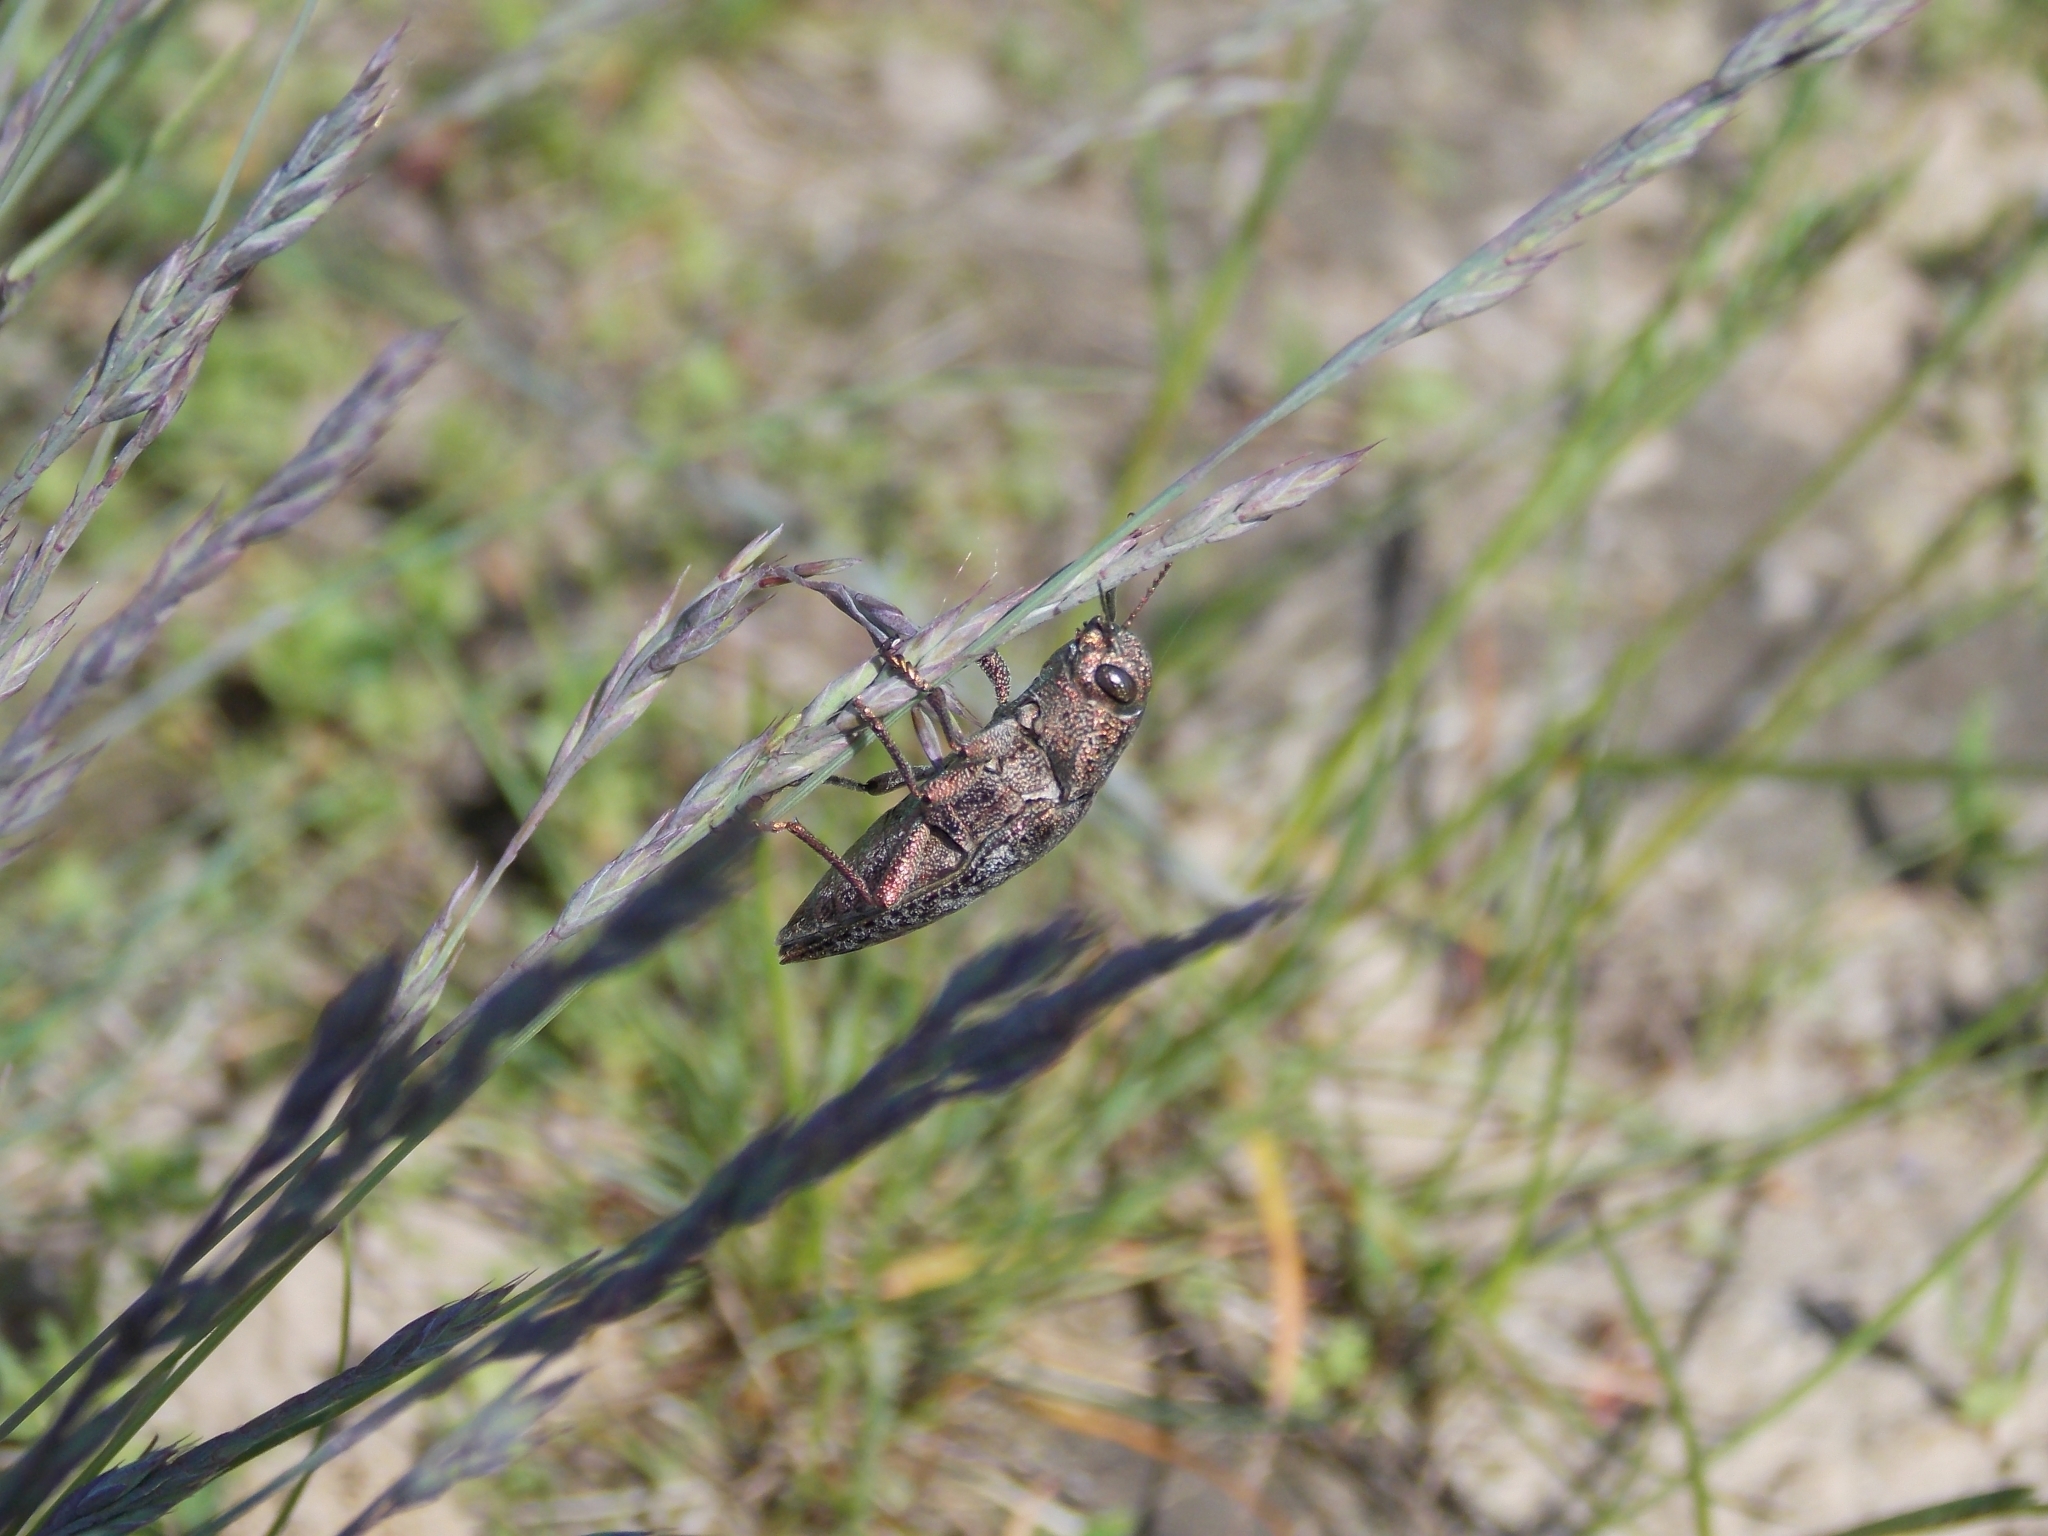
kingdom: Animalia
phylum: Arthropoda
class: Insecta
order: Coleoptera
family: Buprestidae
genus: Dicerca
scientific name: Dicerca aenea
